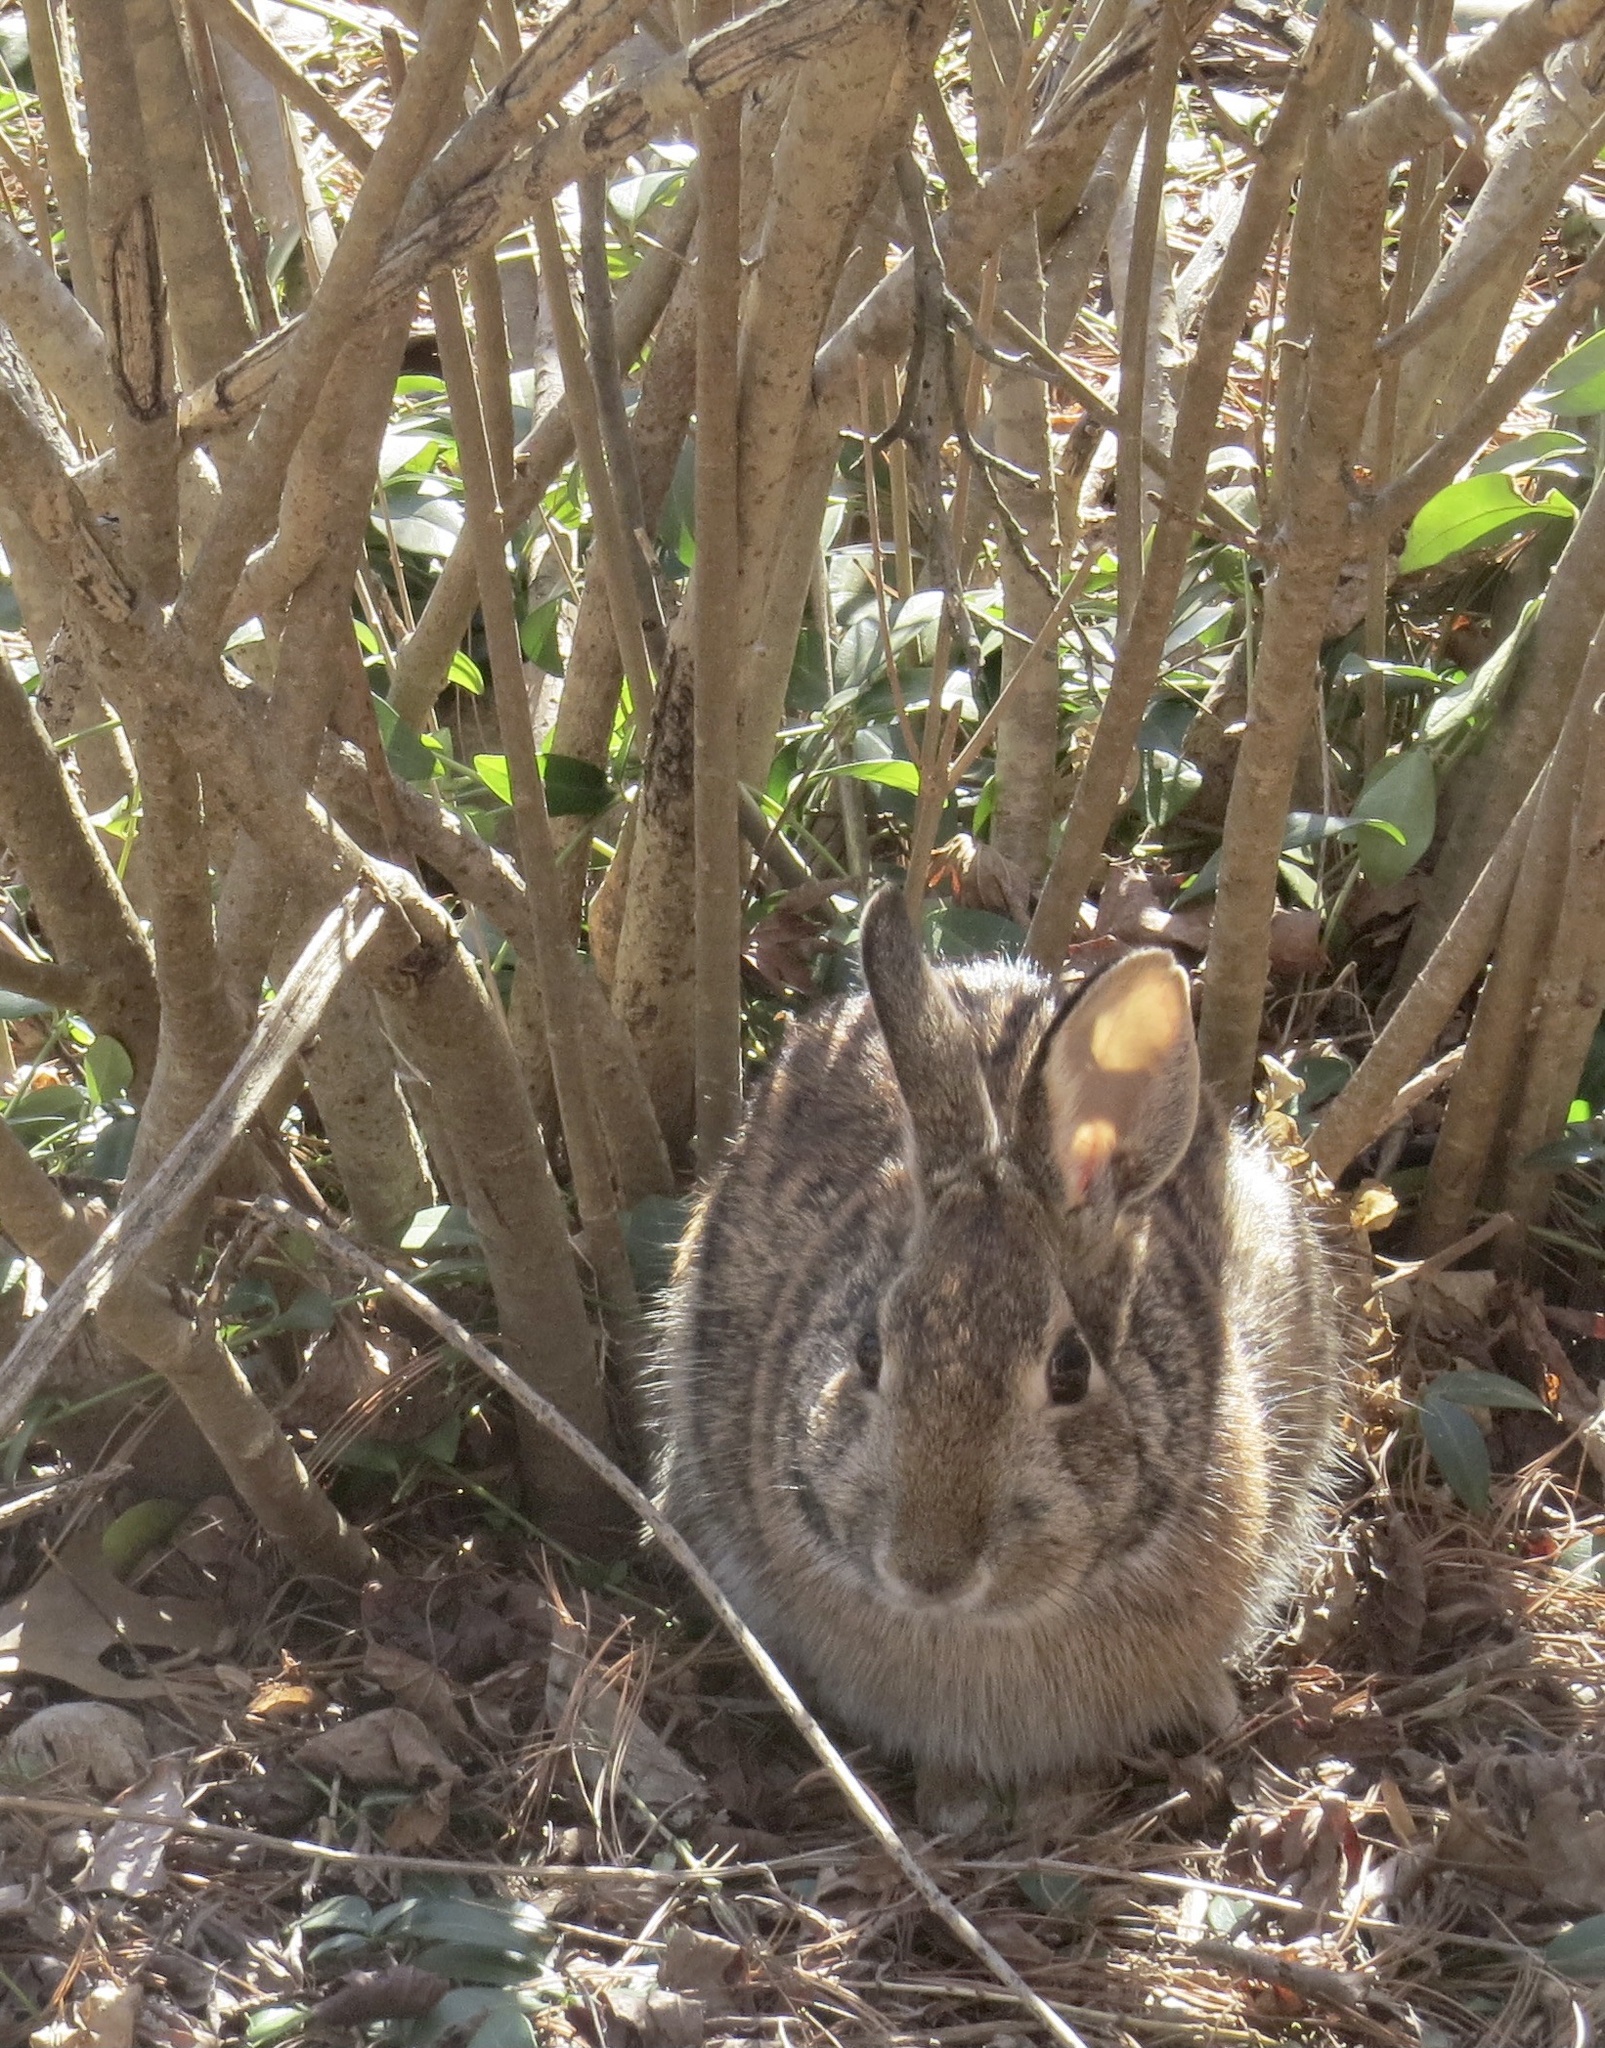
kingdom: Animalia
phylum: Chordata
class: Mammalia
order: Lagomorpha
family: Leporidae
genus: Sylvilagus
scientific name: Sylvilagus floridanus
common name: Eastern cottontail
